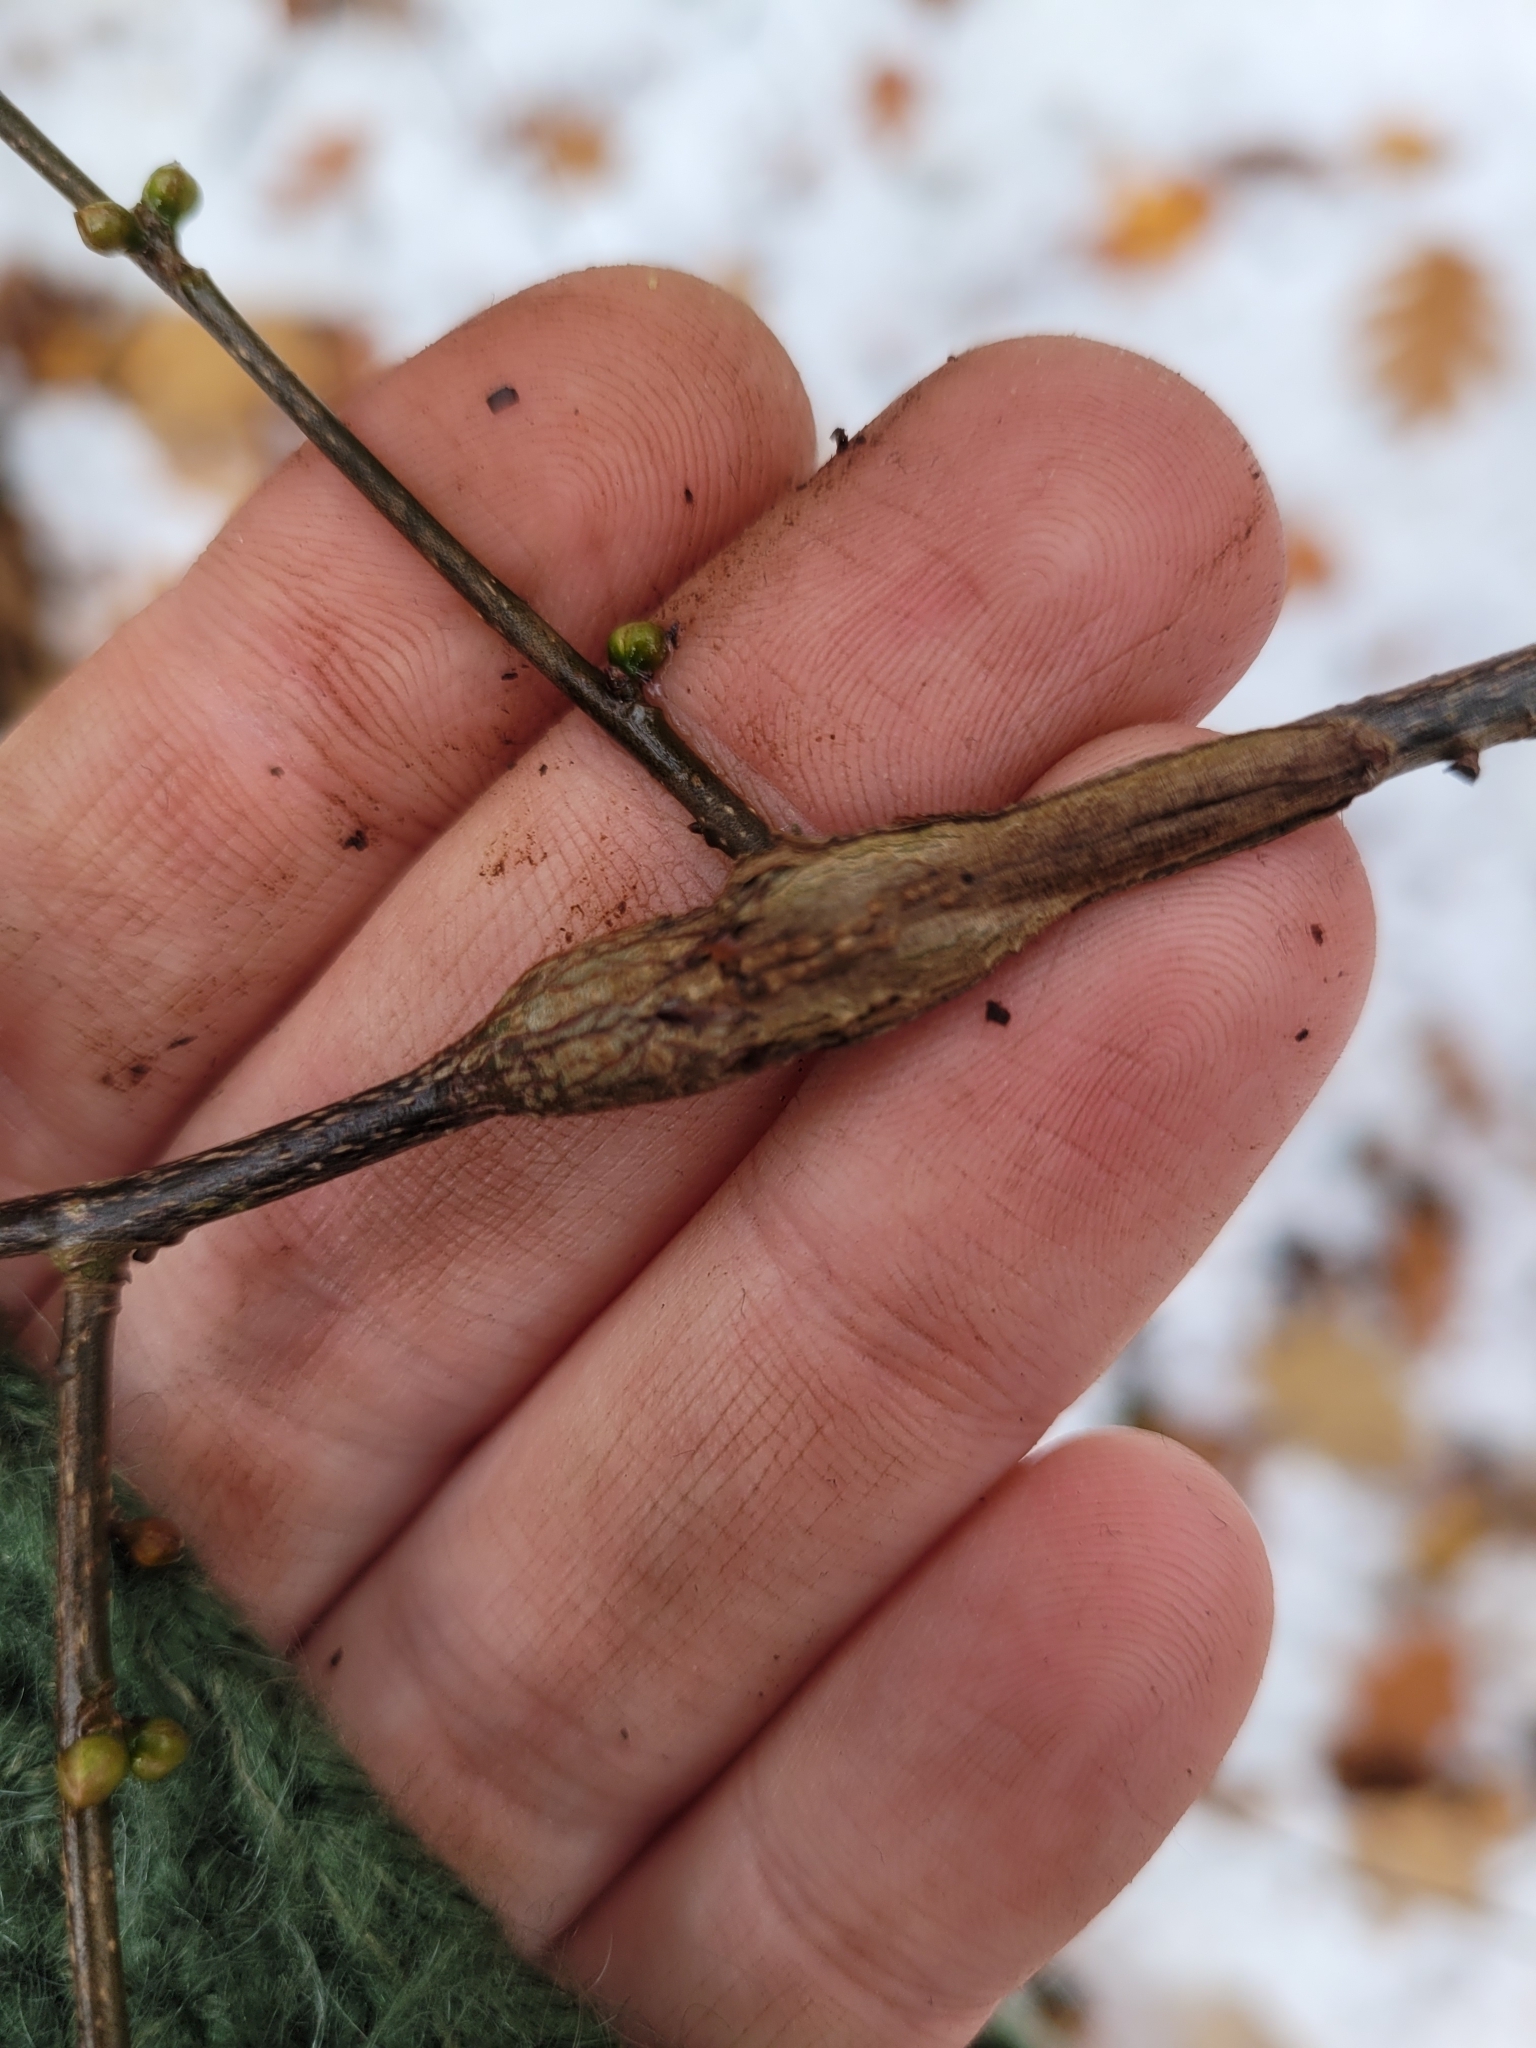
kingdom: Animalia
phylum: Arthropoda
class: Insecta
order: Diptera
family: Cecidomyiidae
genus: Neolasioptera
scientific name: Neolasioptera linderae
